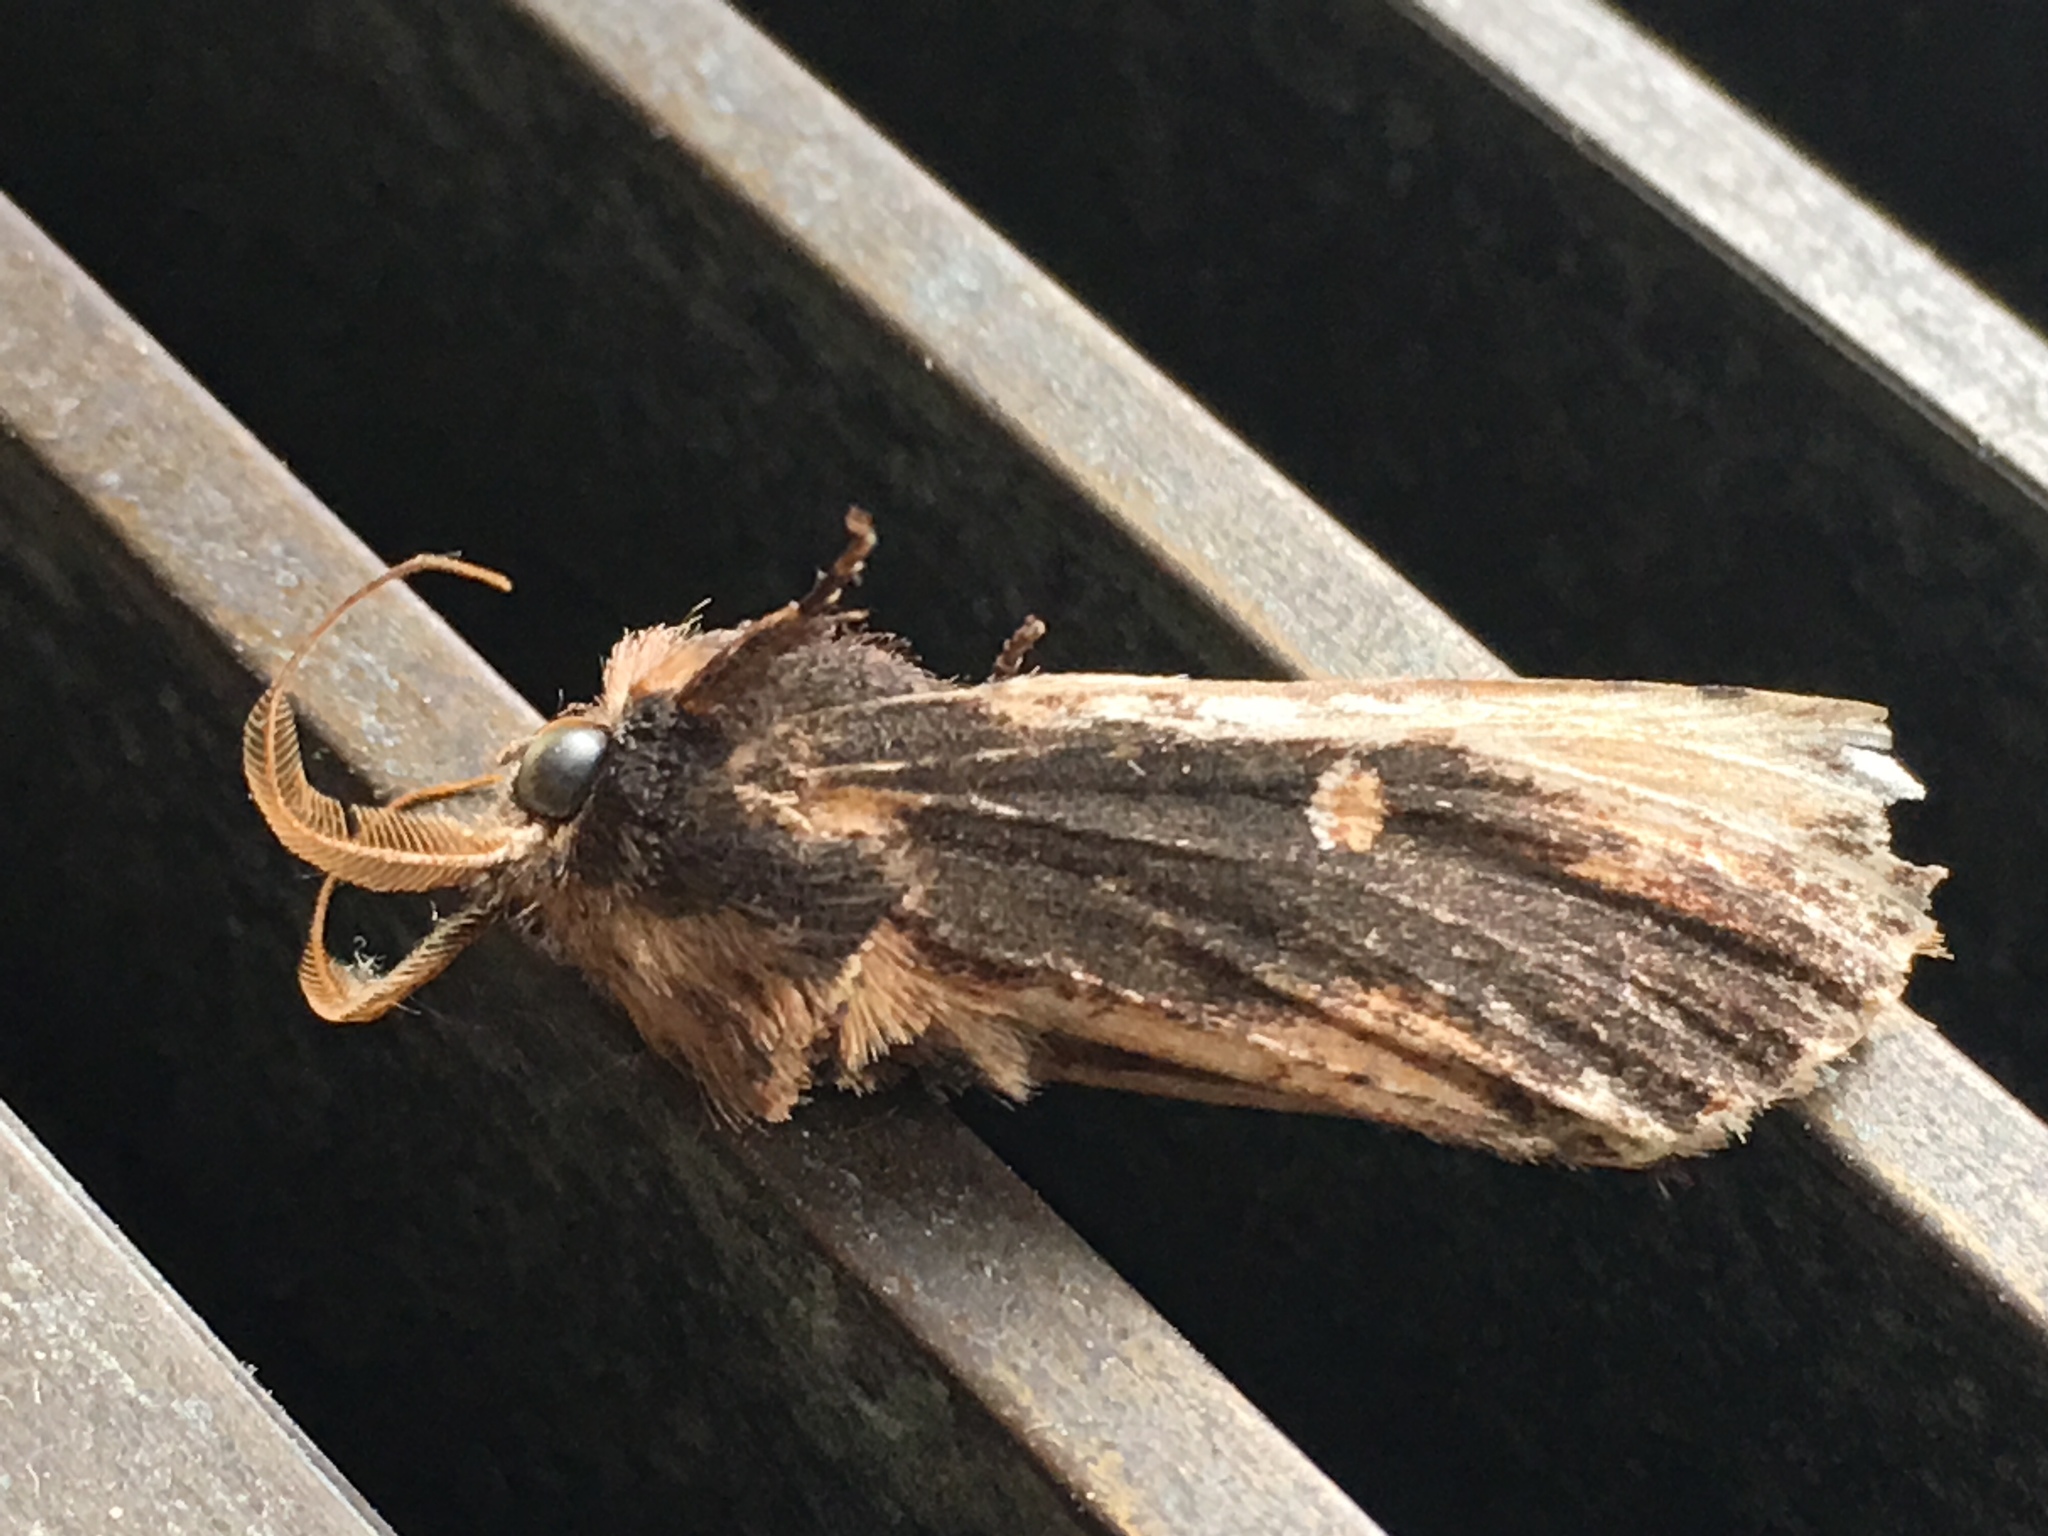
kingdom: Animalia
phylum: Arthropoda
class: Insecta
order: Lepidoptera
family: Notodontidae
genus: Schizura
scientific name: Schizura ipomaeae
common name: Morning-glory prominent
